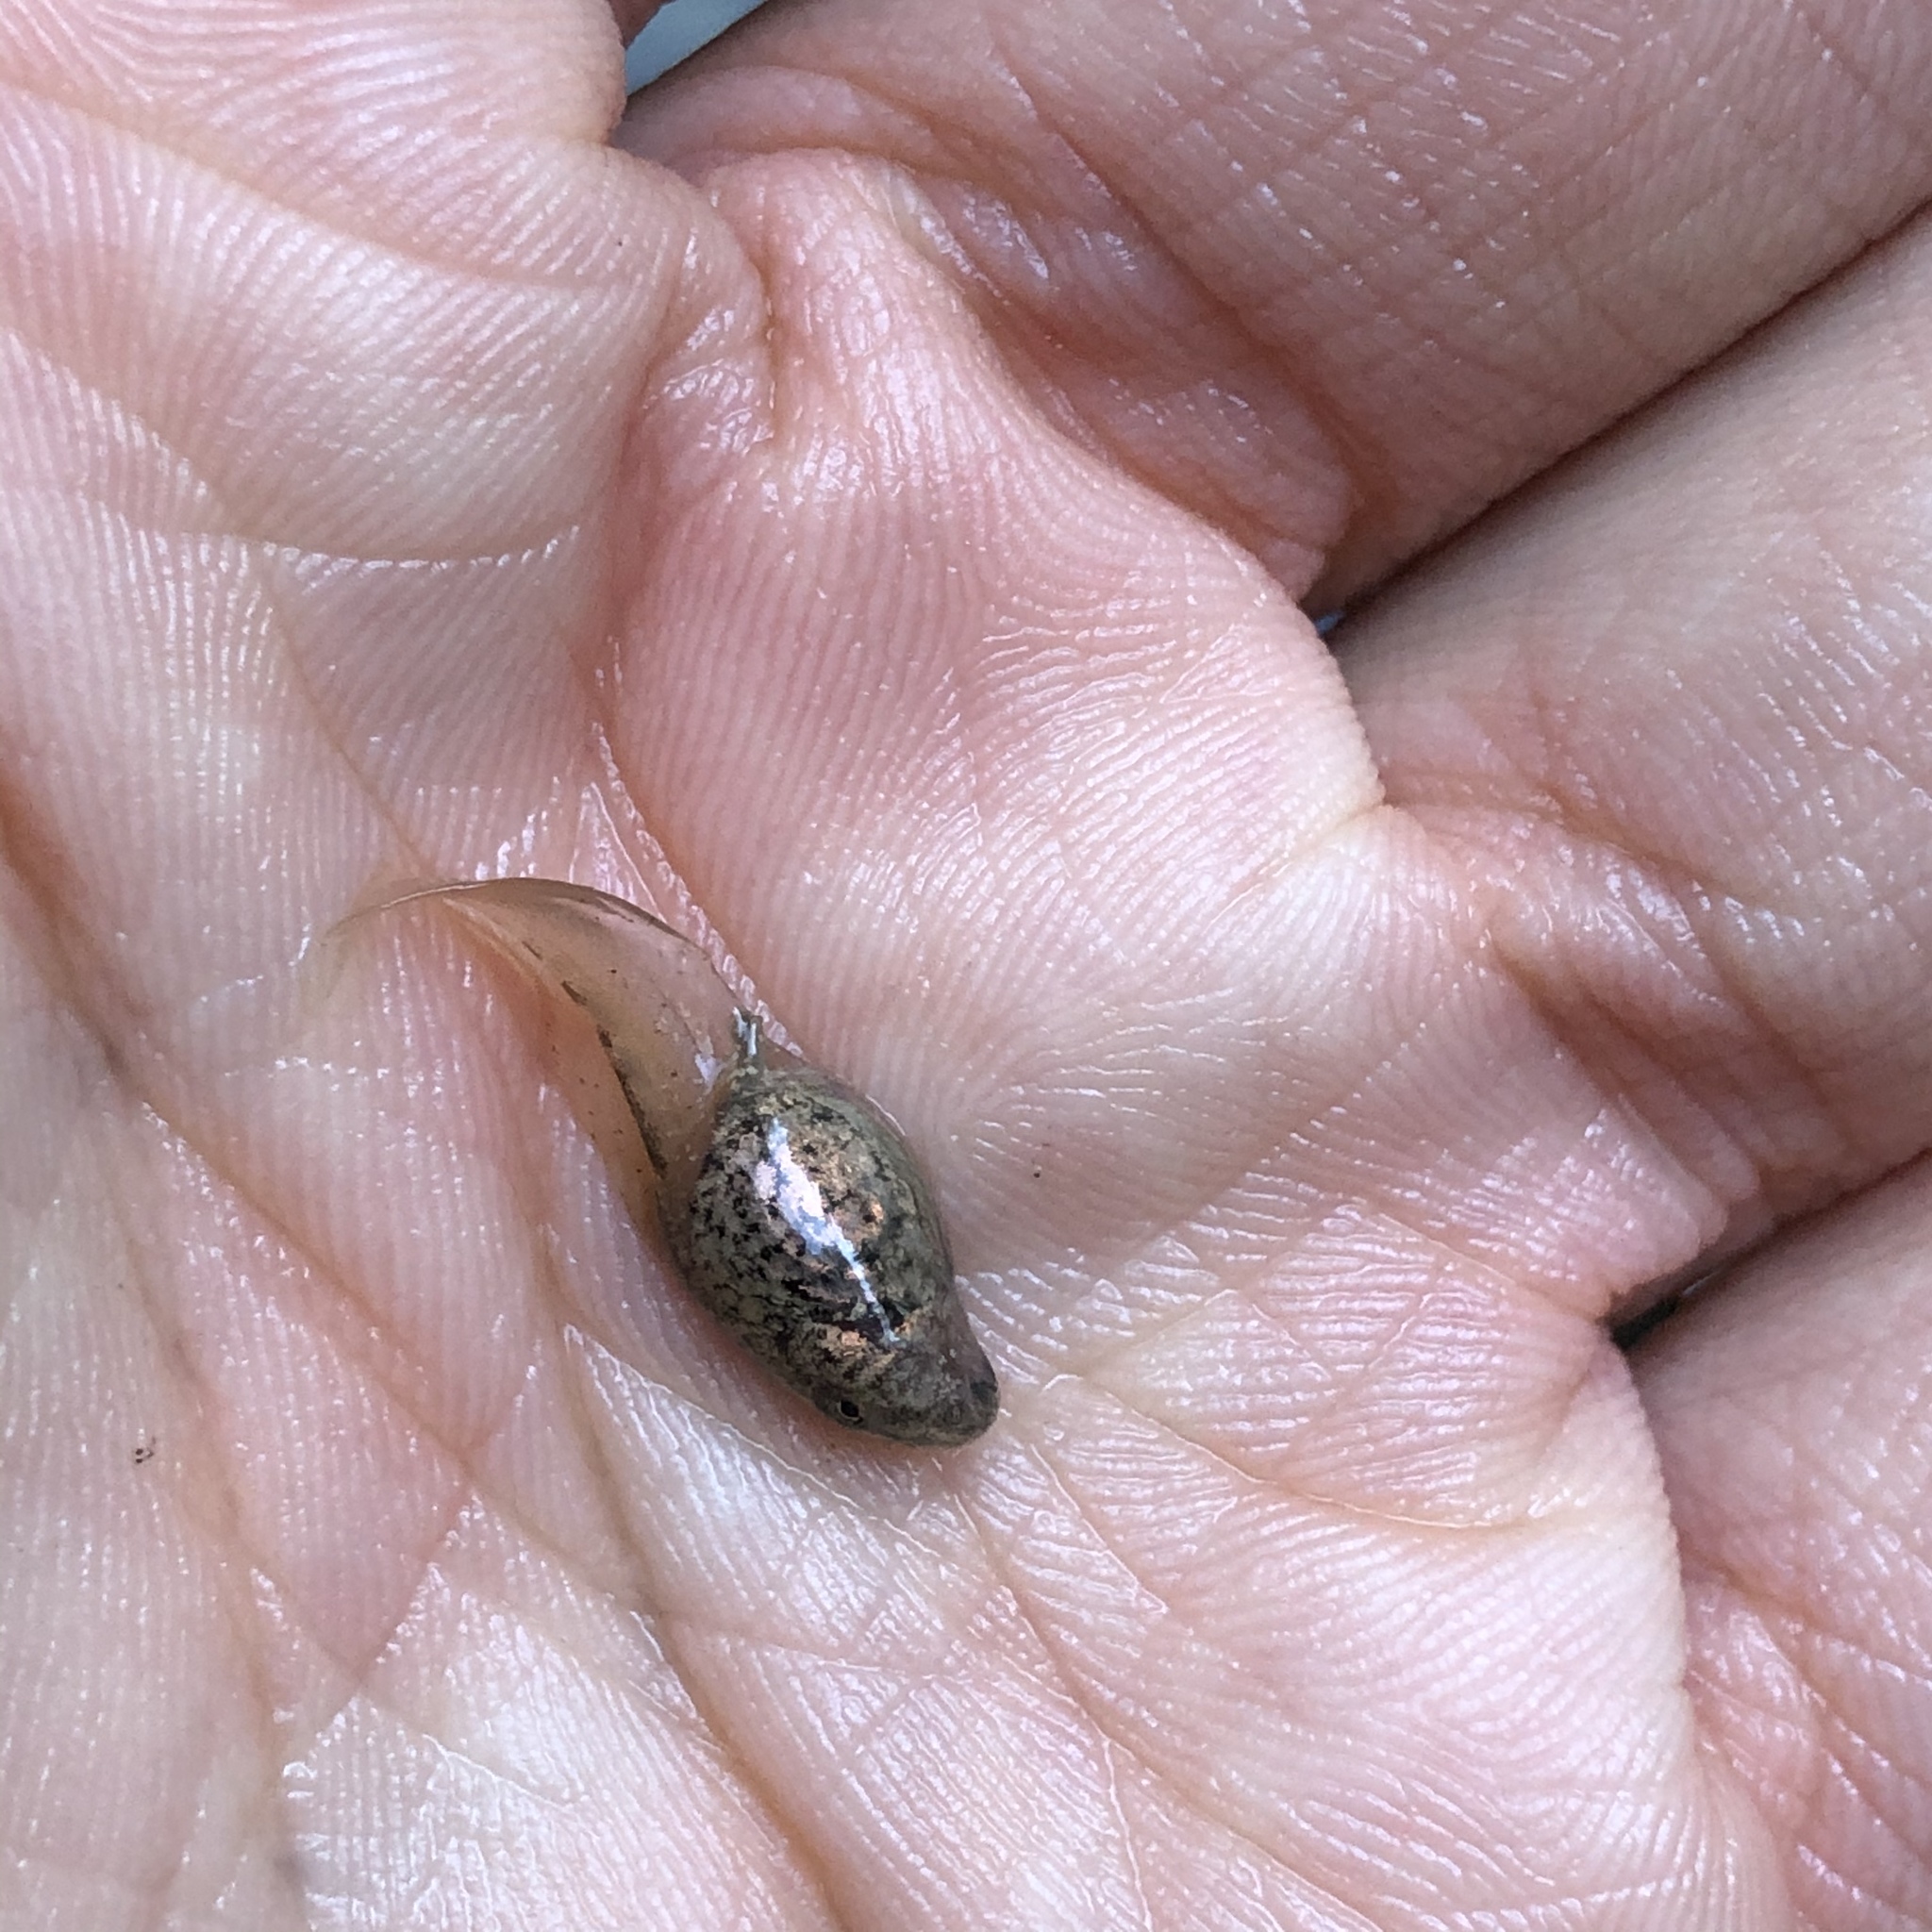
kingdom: Animalia
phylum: Chordata
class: Amphibia
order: Anura
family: Alytidae
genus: Alytes
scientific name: Alytes obstetricans
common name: Midwife toad
